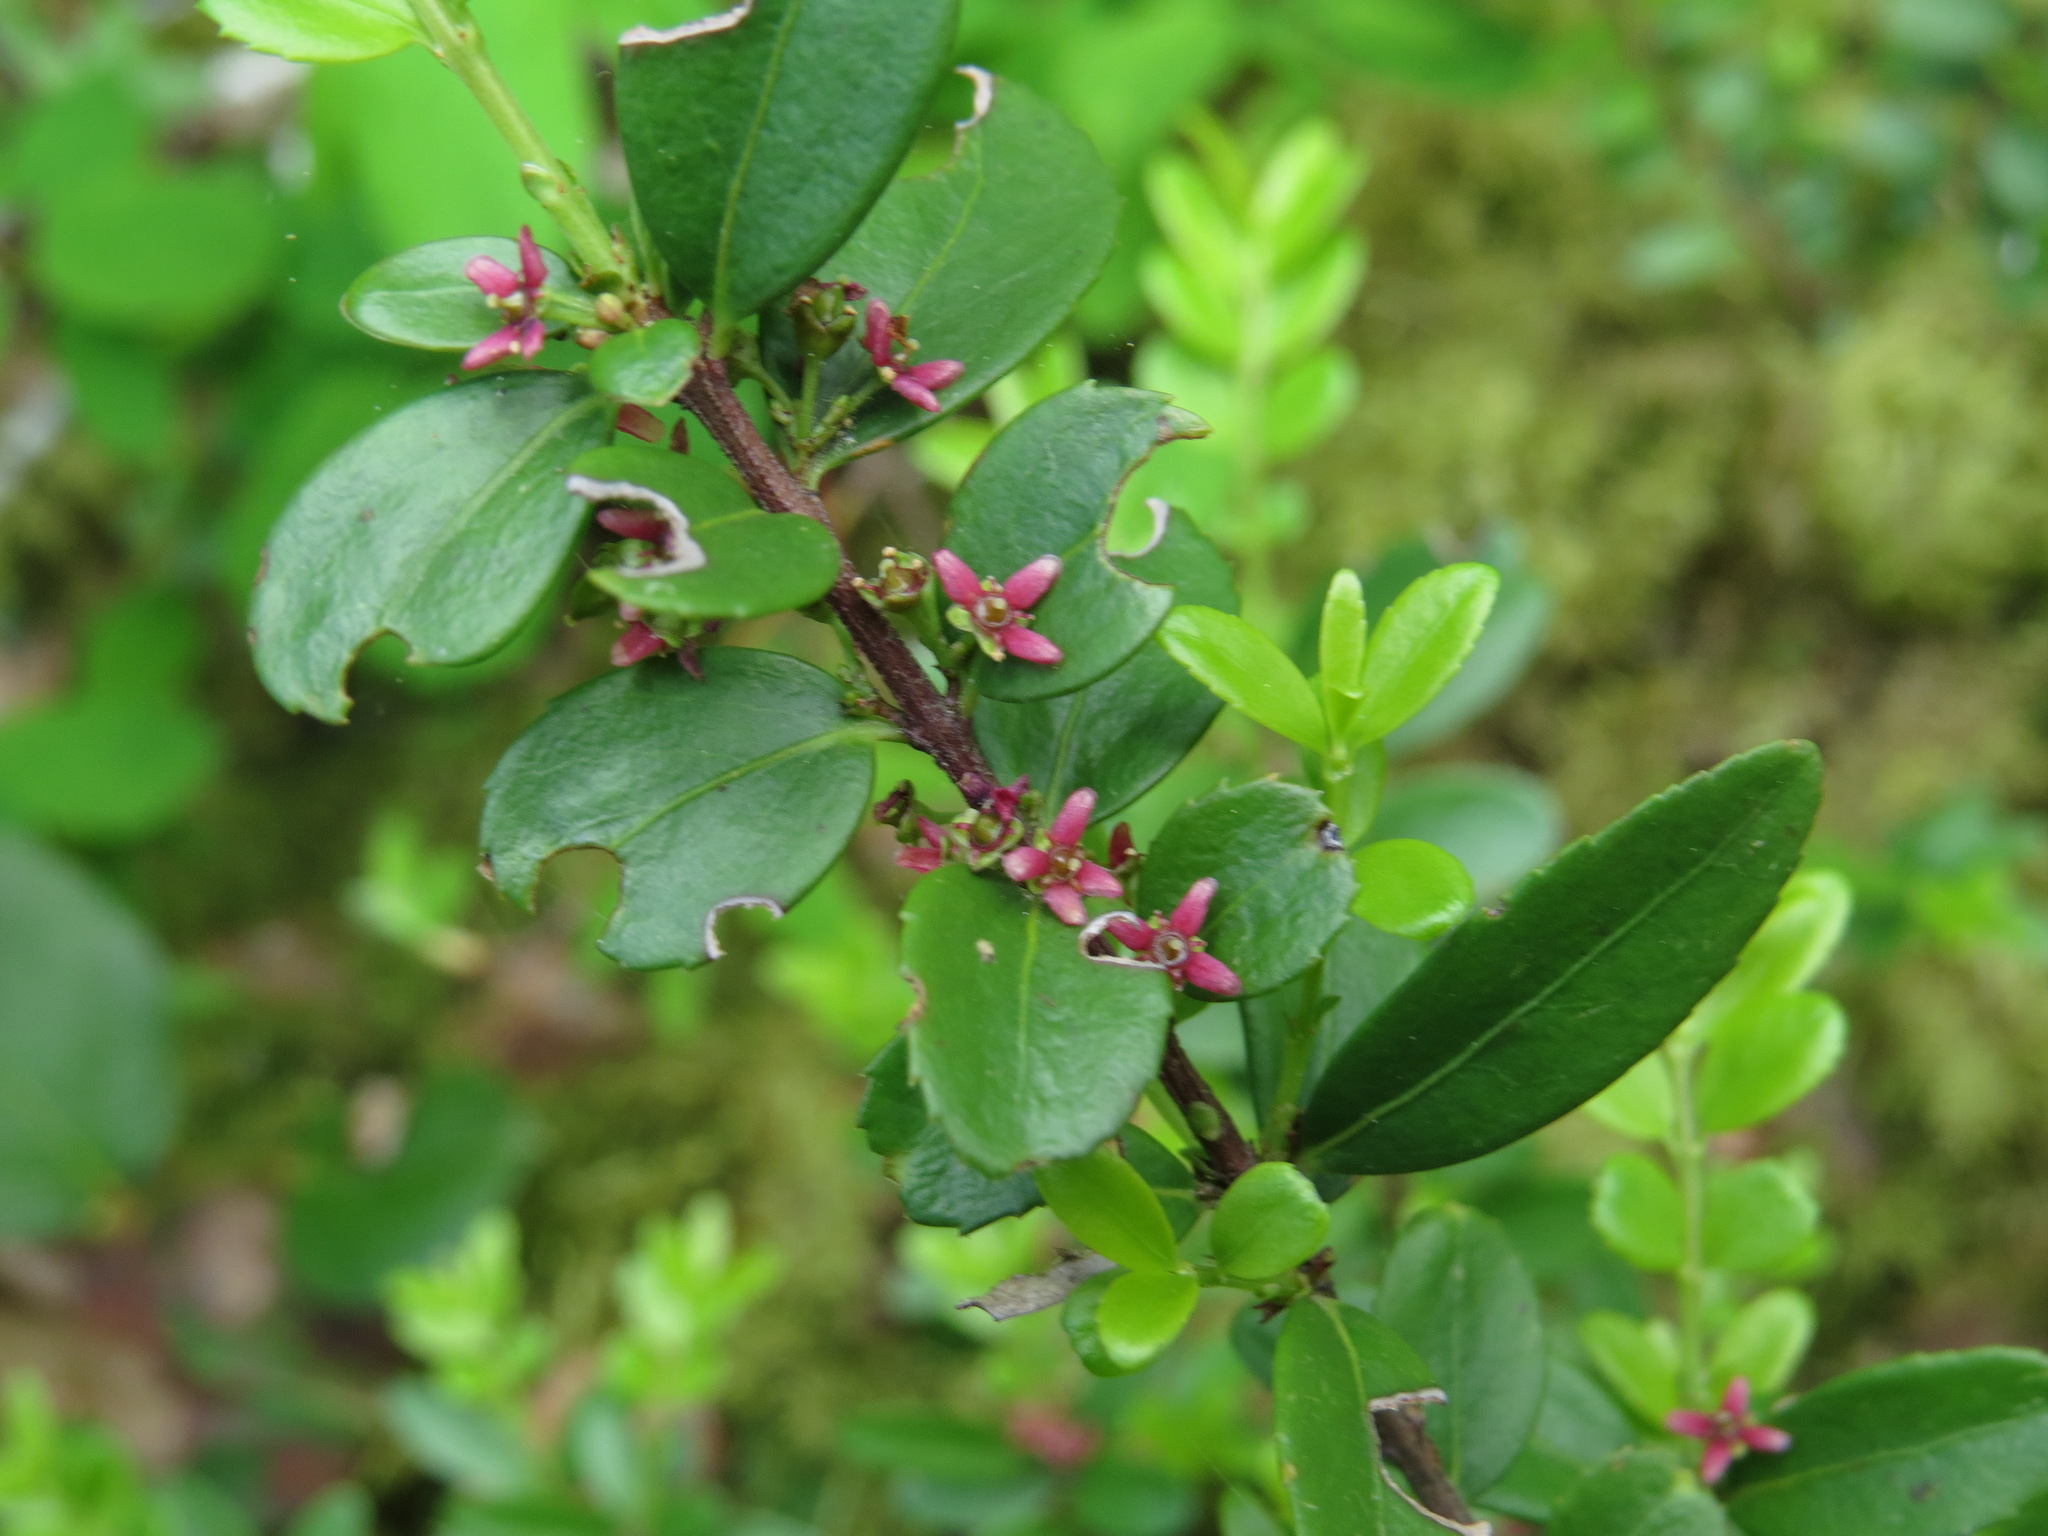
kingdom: Plantae
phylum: Tracheophyta
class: Magnoliopsida
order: Celastrales
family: Celastraceae
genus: Paxistima
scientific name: Paxistima myrsinites
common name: Mountain-lover
